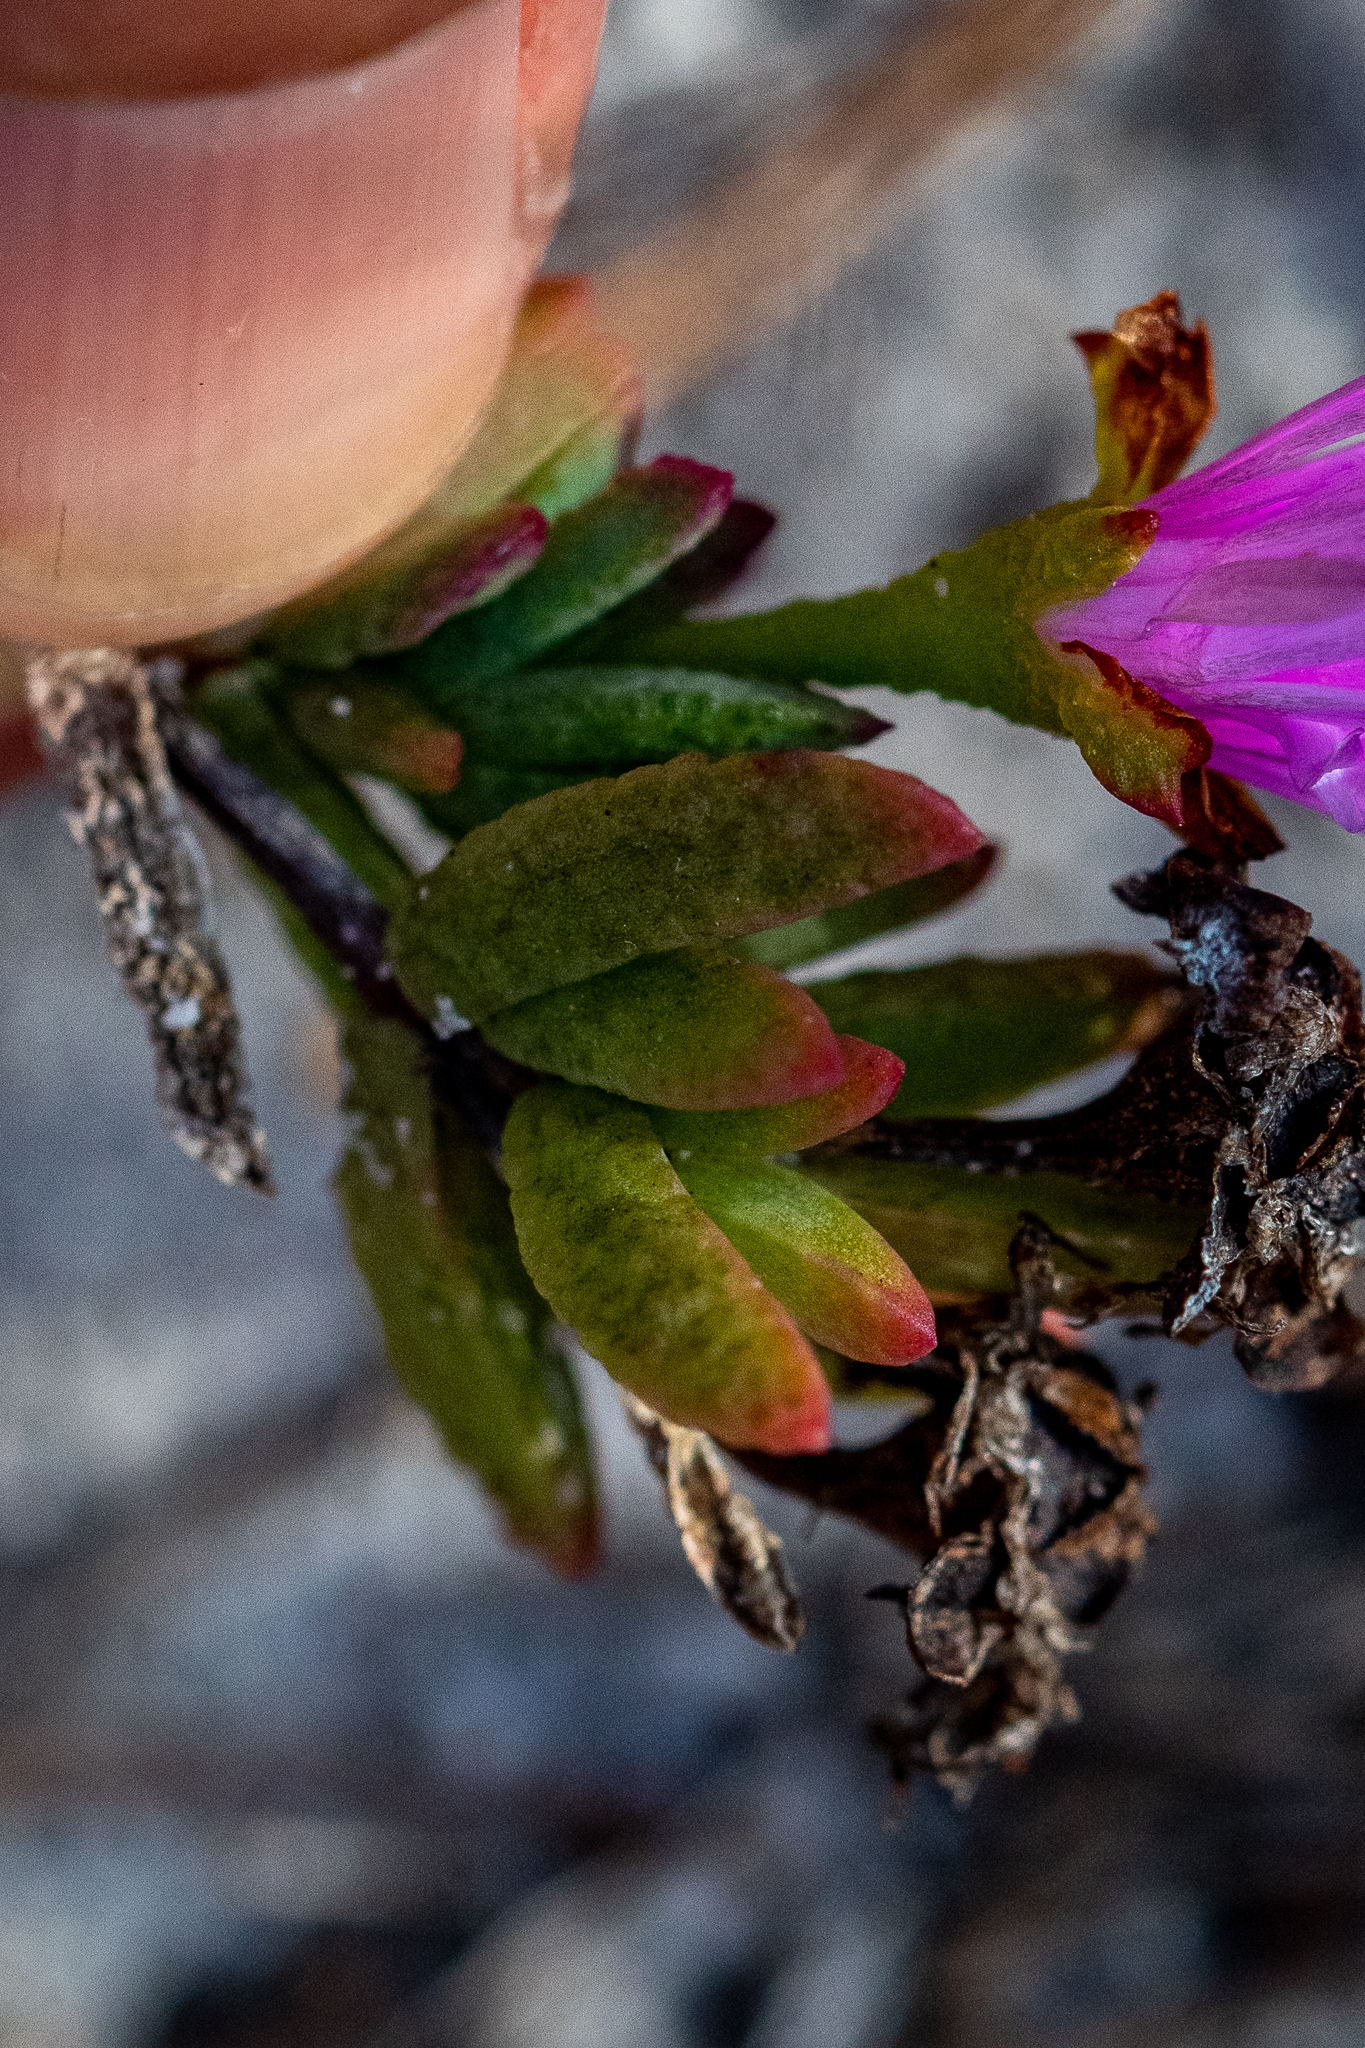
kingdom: Plantae
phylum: Tracheophyta
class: Magnoliopsida
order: Caryophyllales
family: Aizoaceae
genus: Lampranthus
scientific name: Lampranthus glomeratus
